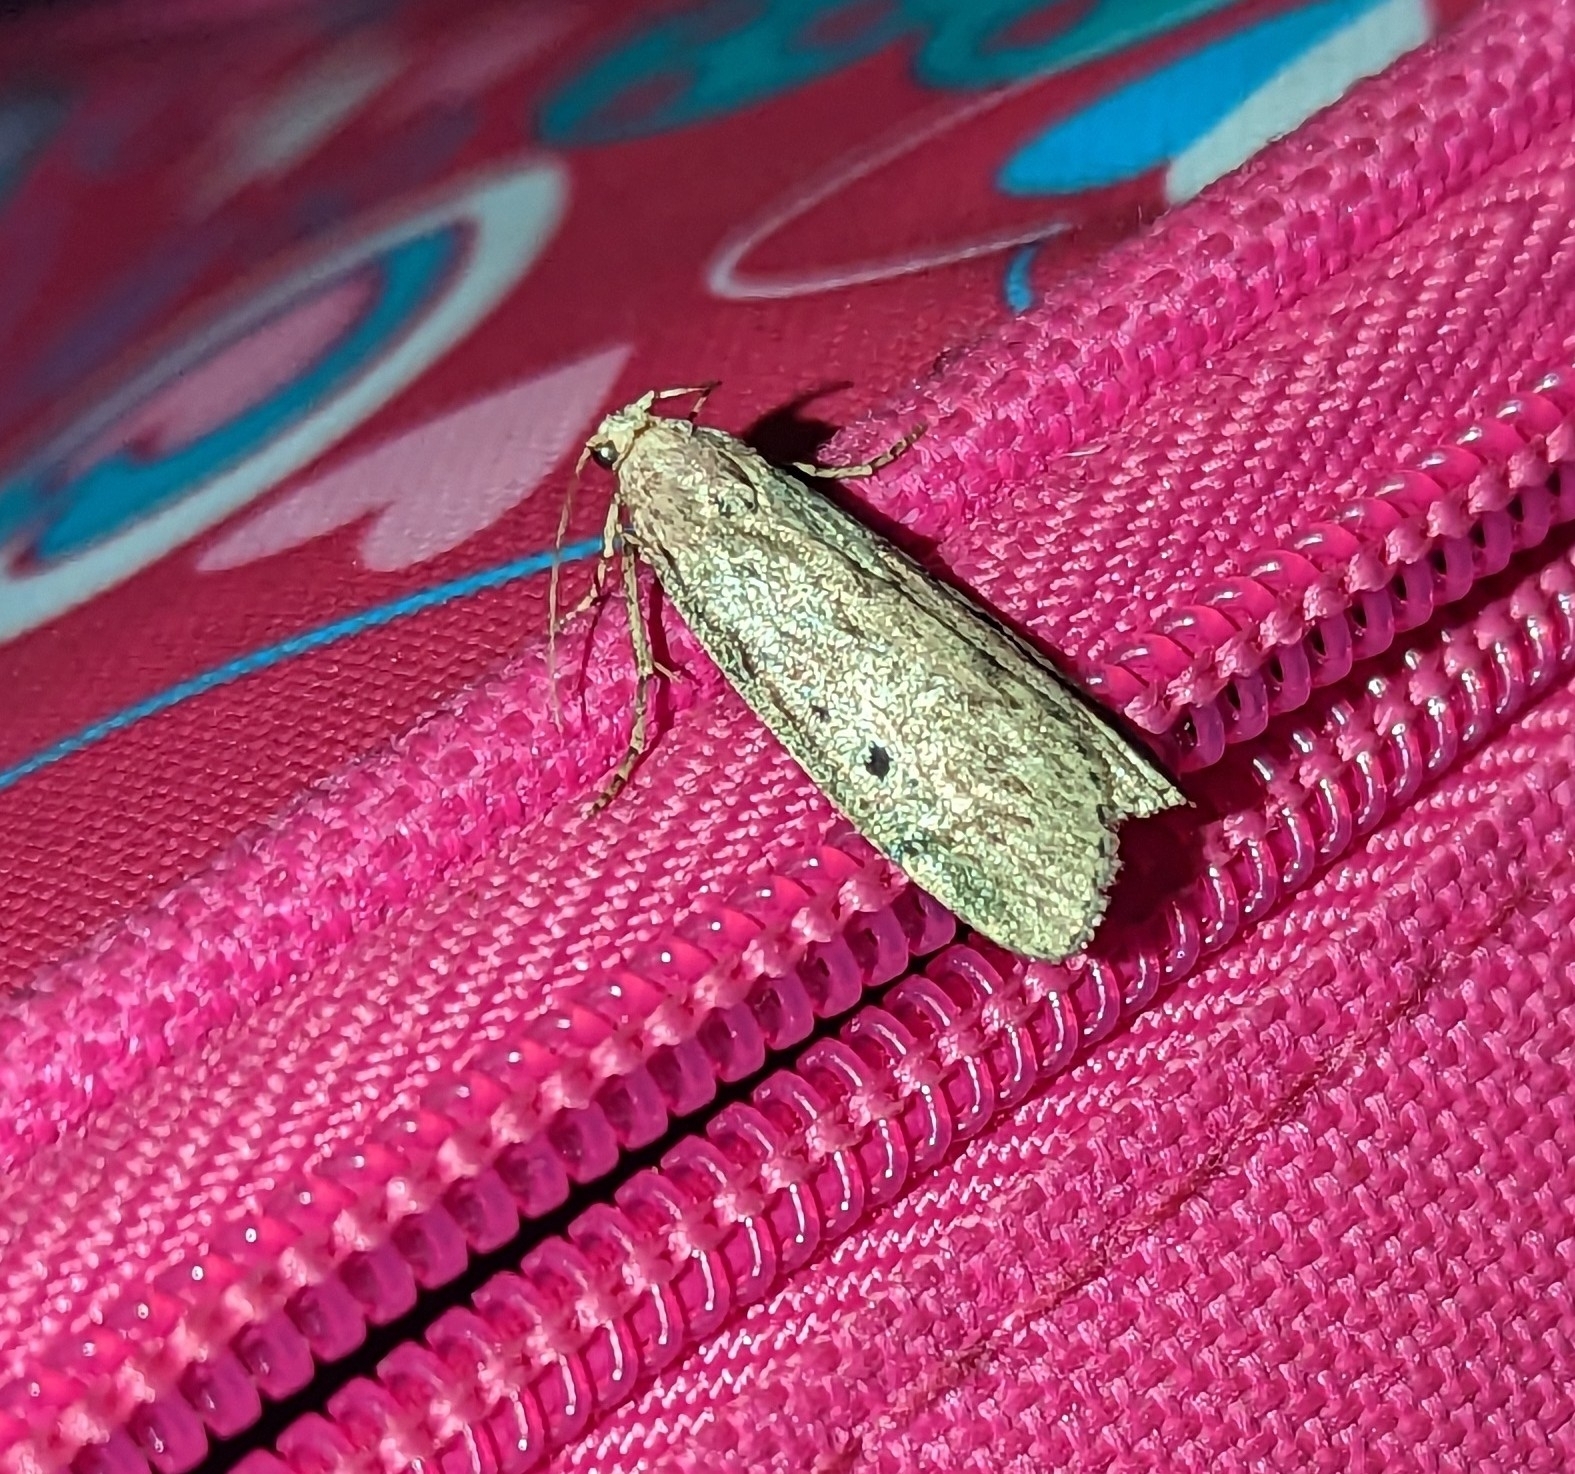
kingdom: Animalia
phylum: Arthropoda
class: Insecta
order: Lepidoptera
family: Pyralidae
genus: Aphomia
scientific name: Aphomia sociella
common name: Bee moth
